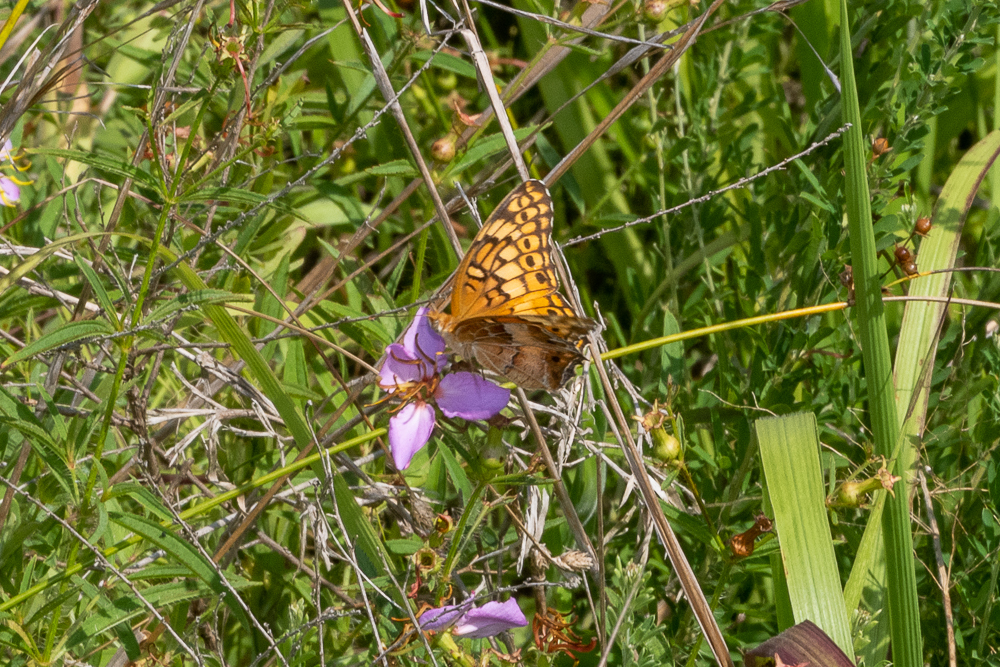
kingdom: Animalia
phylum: Arthropoda
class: Insecta
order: Lepidoptera
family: Nymphalidae
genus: Euptoieta
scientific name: Euptoieta claudia
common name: Variegated fritillary
